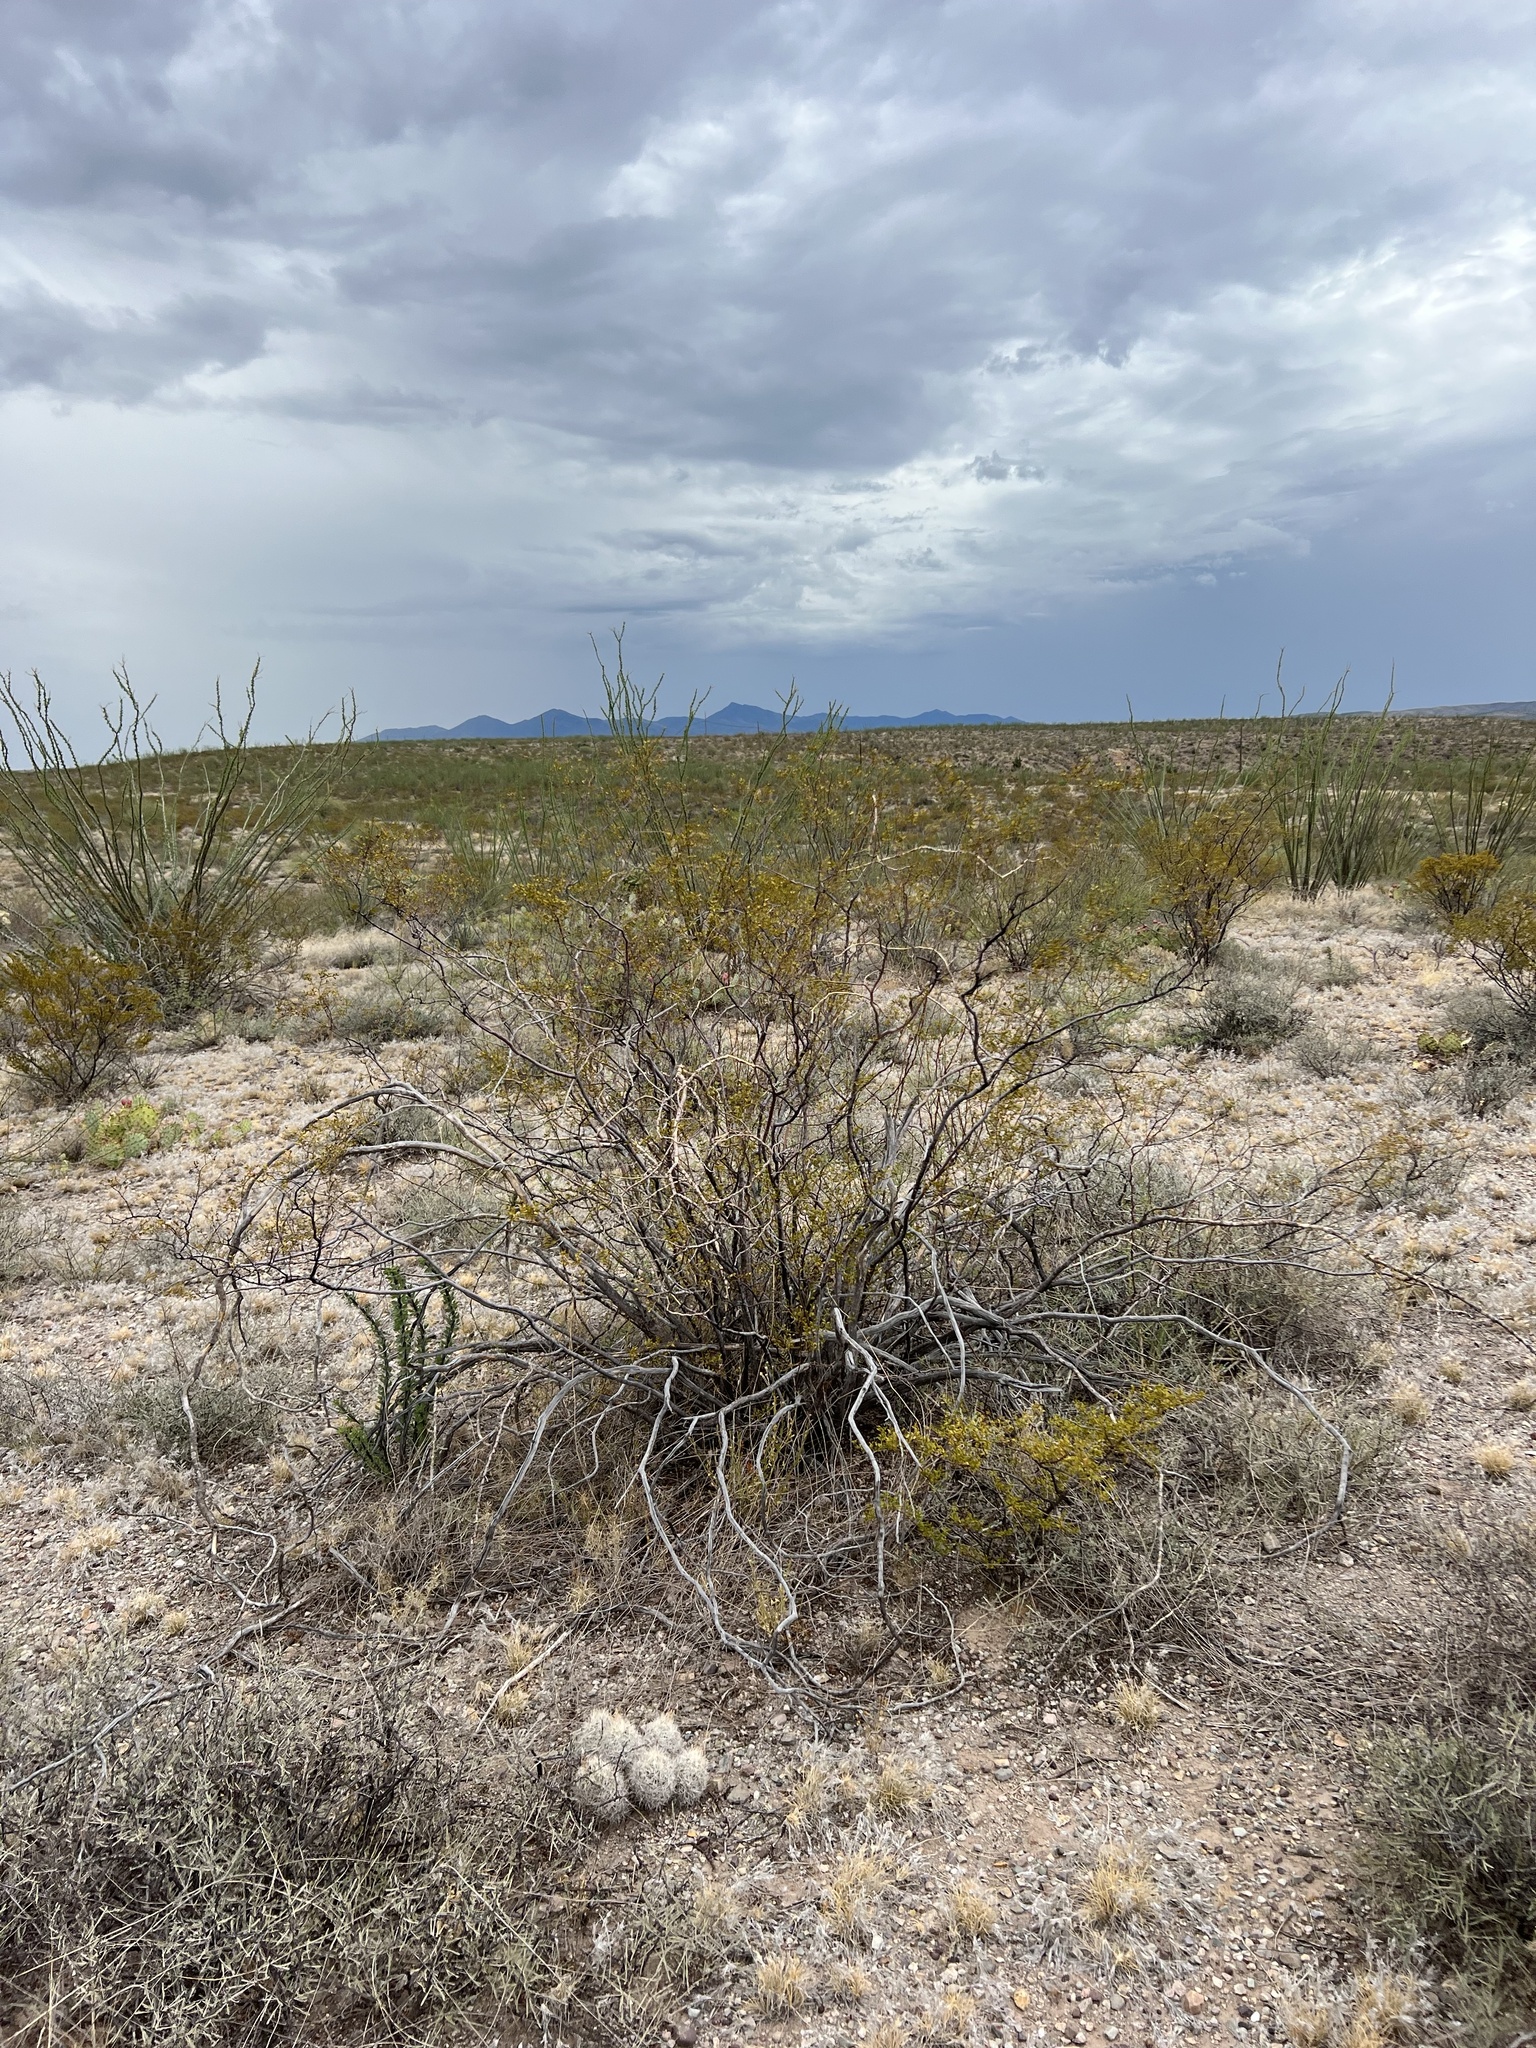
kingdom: Plantae
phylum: Tracheophyta
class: Magnoliopsida
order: Zygophyllales
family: Zygophyllaceae
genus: Larrea
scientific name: Larrea tridentata
